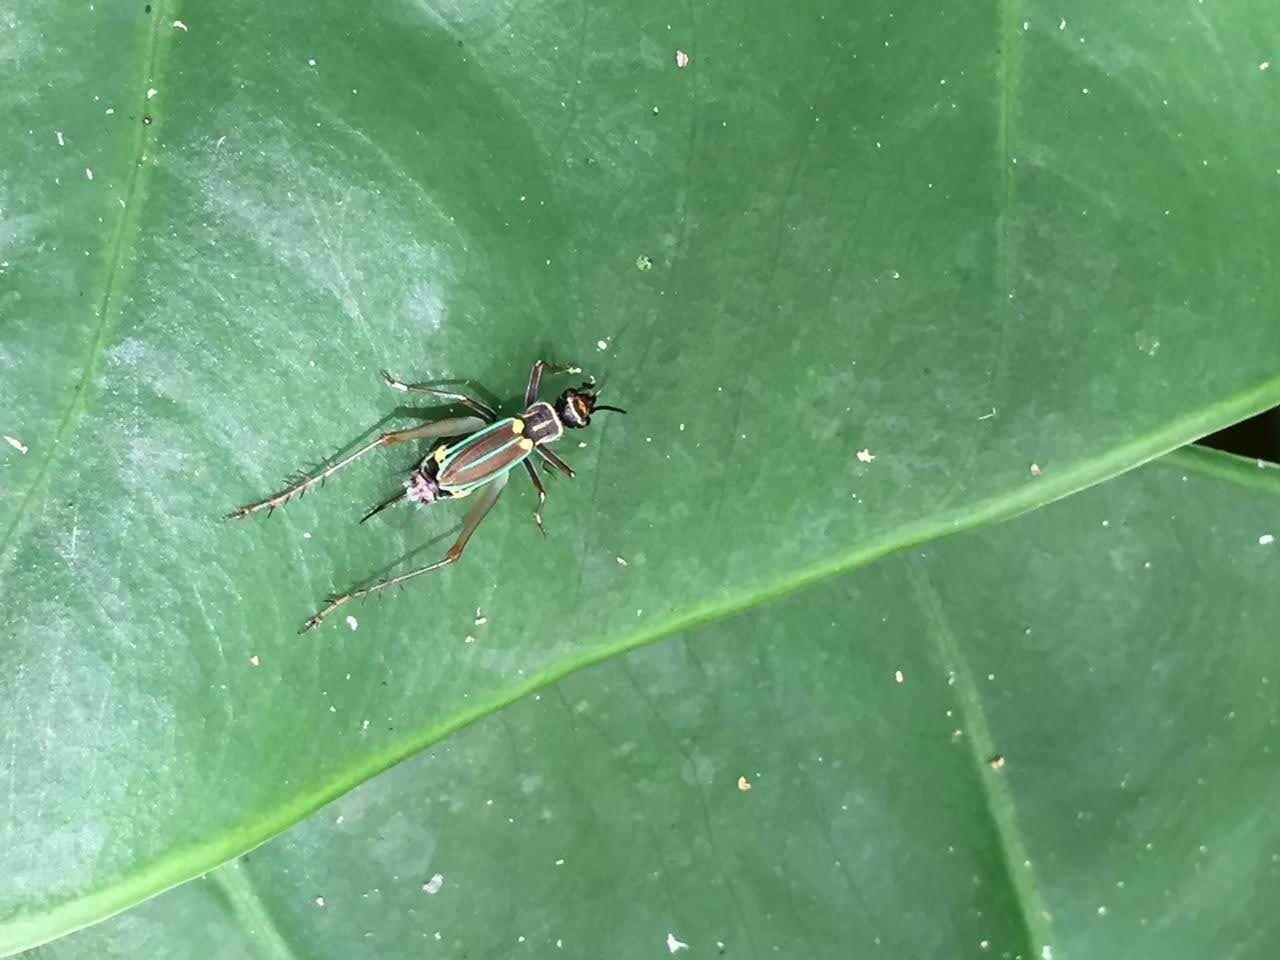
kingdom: Animalia
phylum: Arthropoda
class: Insecta
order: Orthoptera
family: Trigonidiidae
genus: Phylloscyrtus
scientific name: Phylloscyrtus amoenus
